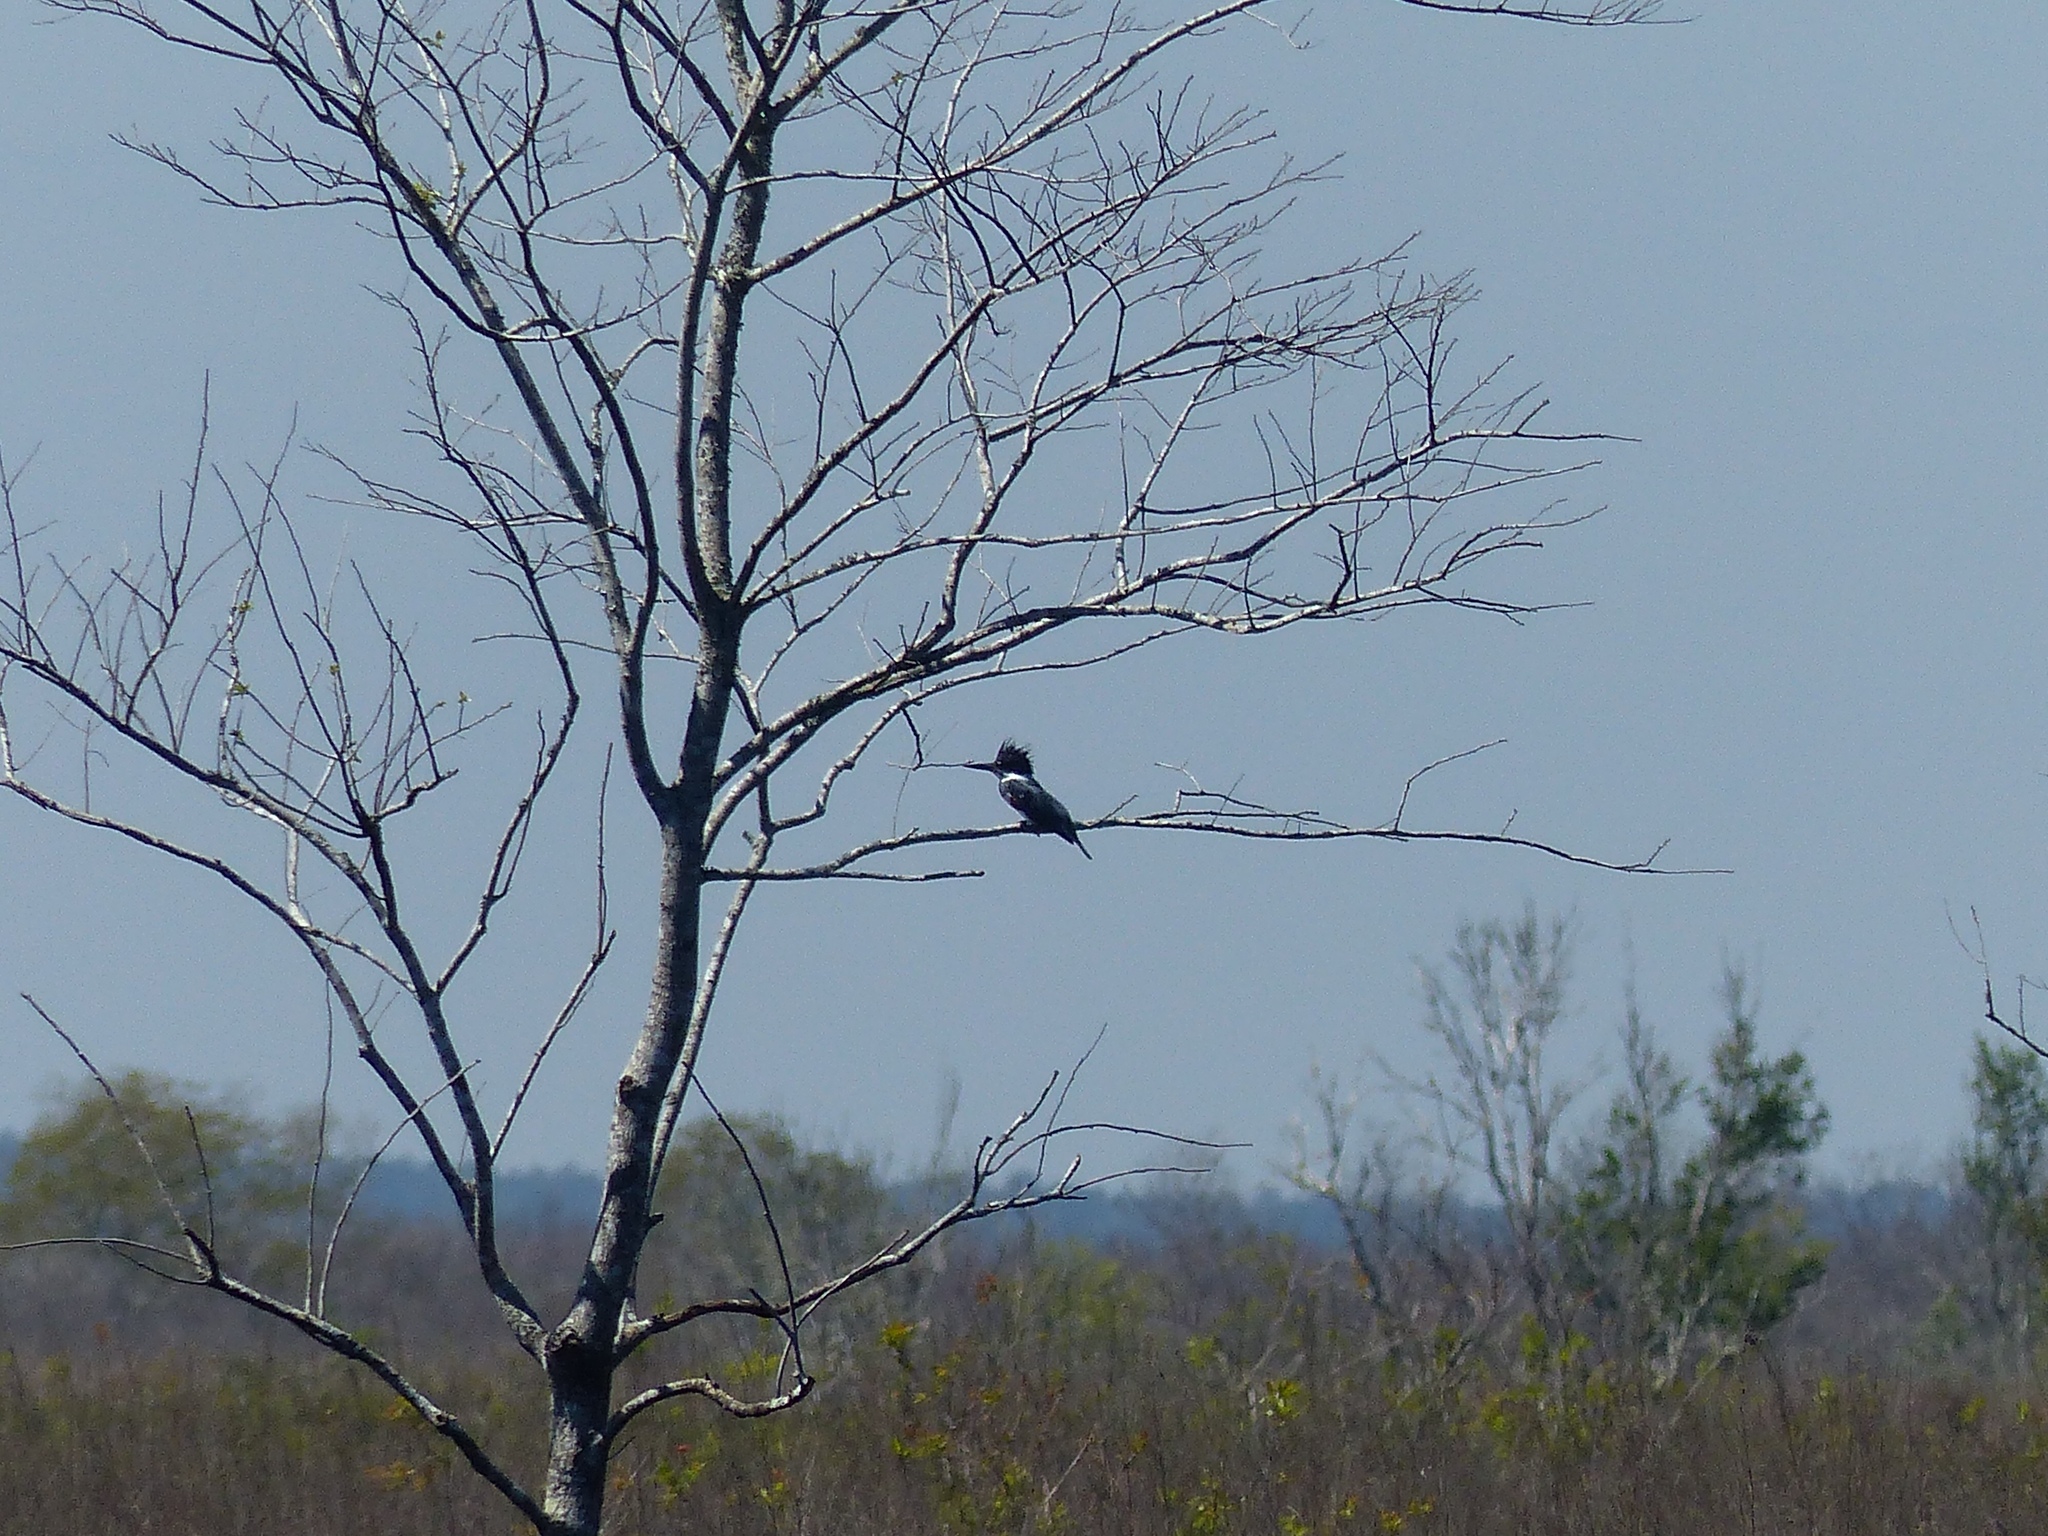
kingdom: Animalia
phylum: Chordata
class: Aves
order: Coraciiformes
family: Alcedinidae
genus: Megaceryle
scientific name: Megaceryle alcyon
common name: Belted kingfisher
